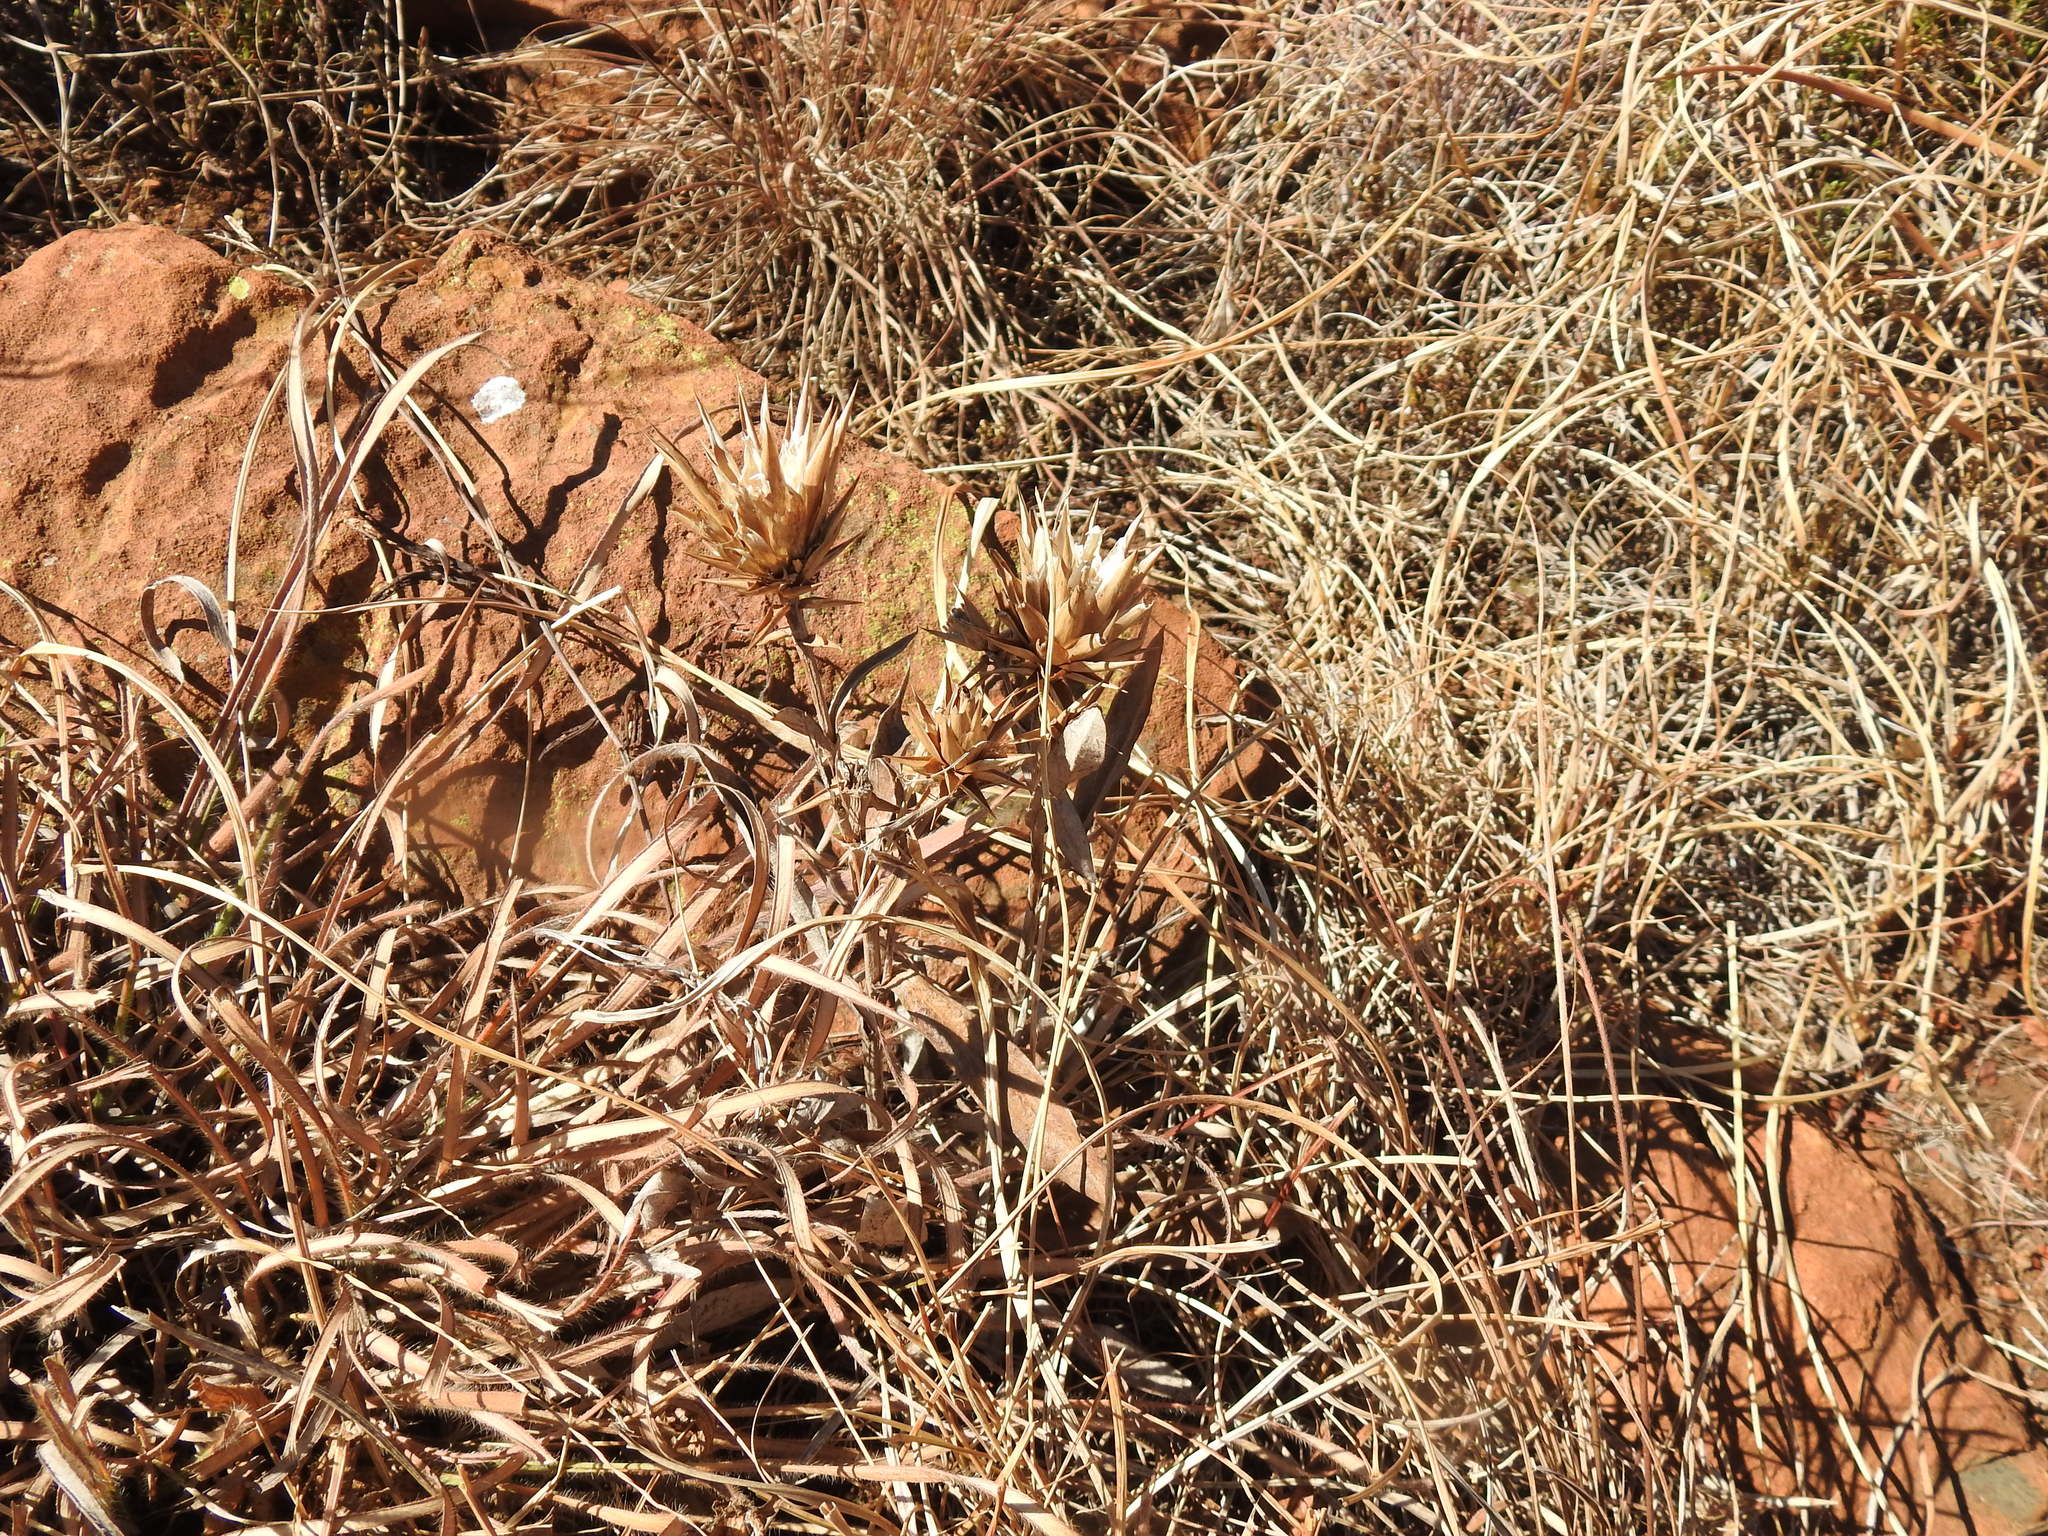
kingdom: Plantae
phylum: Tracheophyta
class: Magnoliopsida
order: Asterales
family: Asteraceae
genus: Macledium
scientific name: Macledium zeyheri
